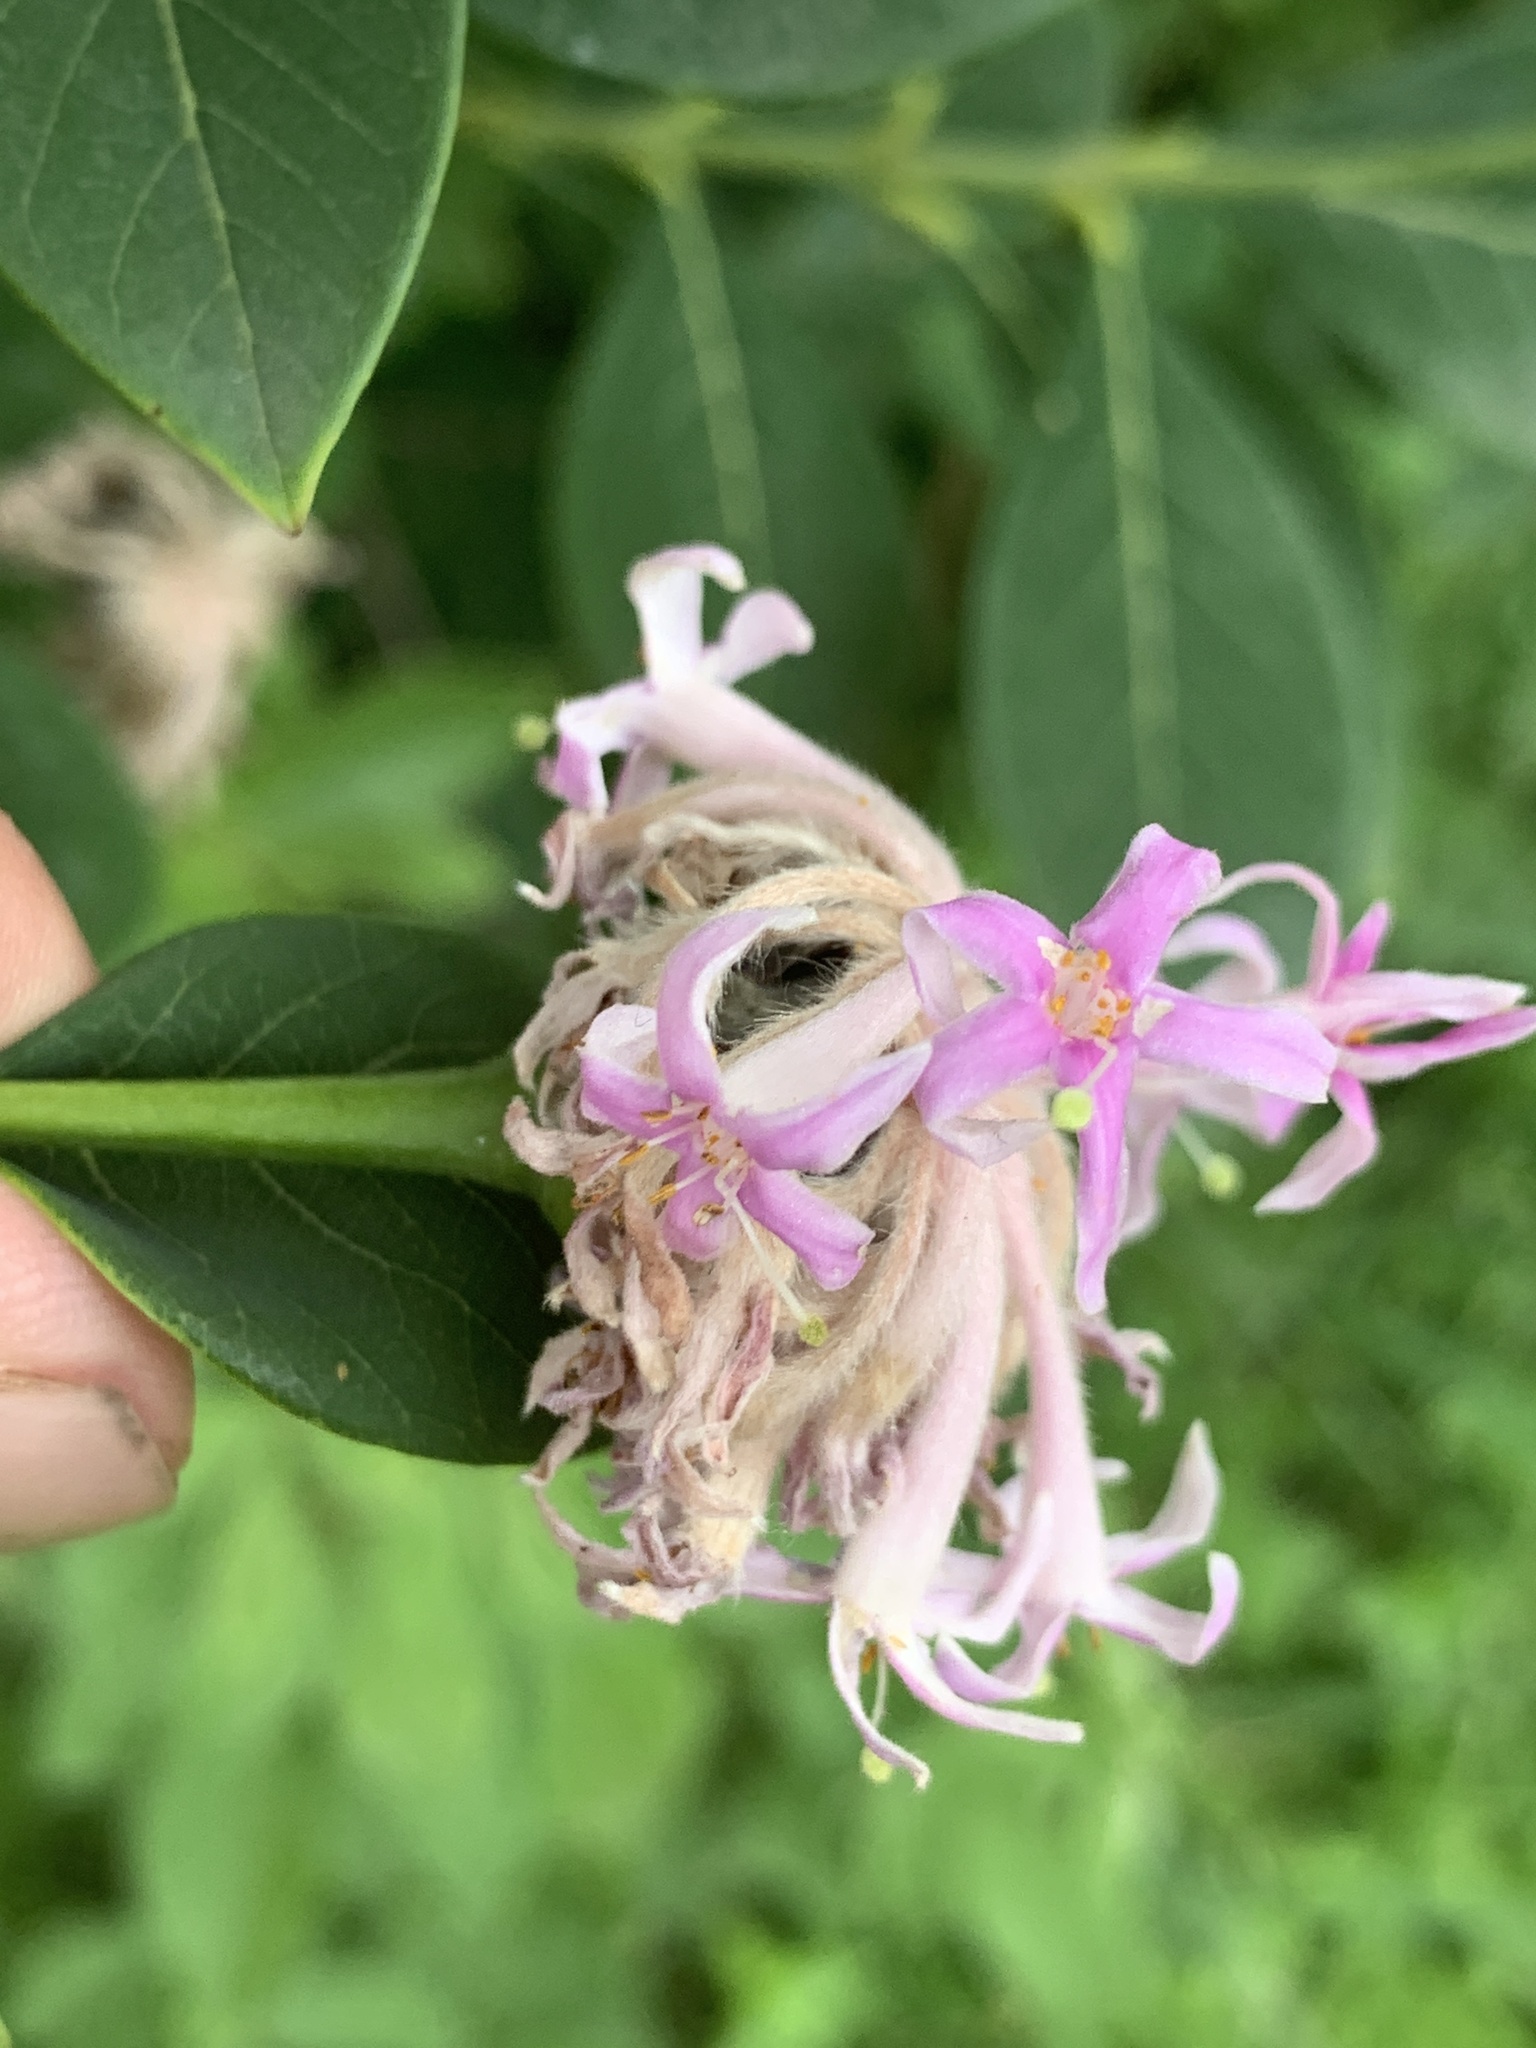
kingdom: Plantae
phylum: Tracheophyta
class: Magnoliopsida
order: Malvales
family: Thymelaeaceae
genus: Dais
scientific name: Dais cotinifolia
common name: Pompon tree
